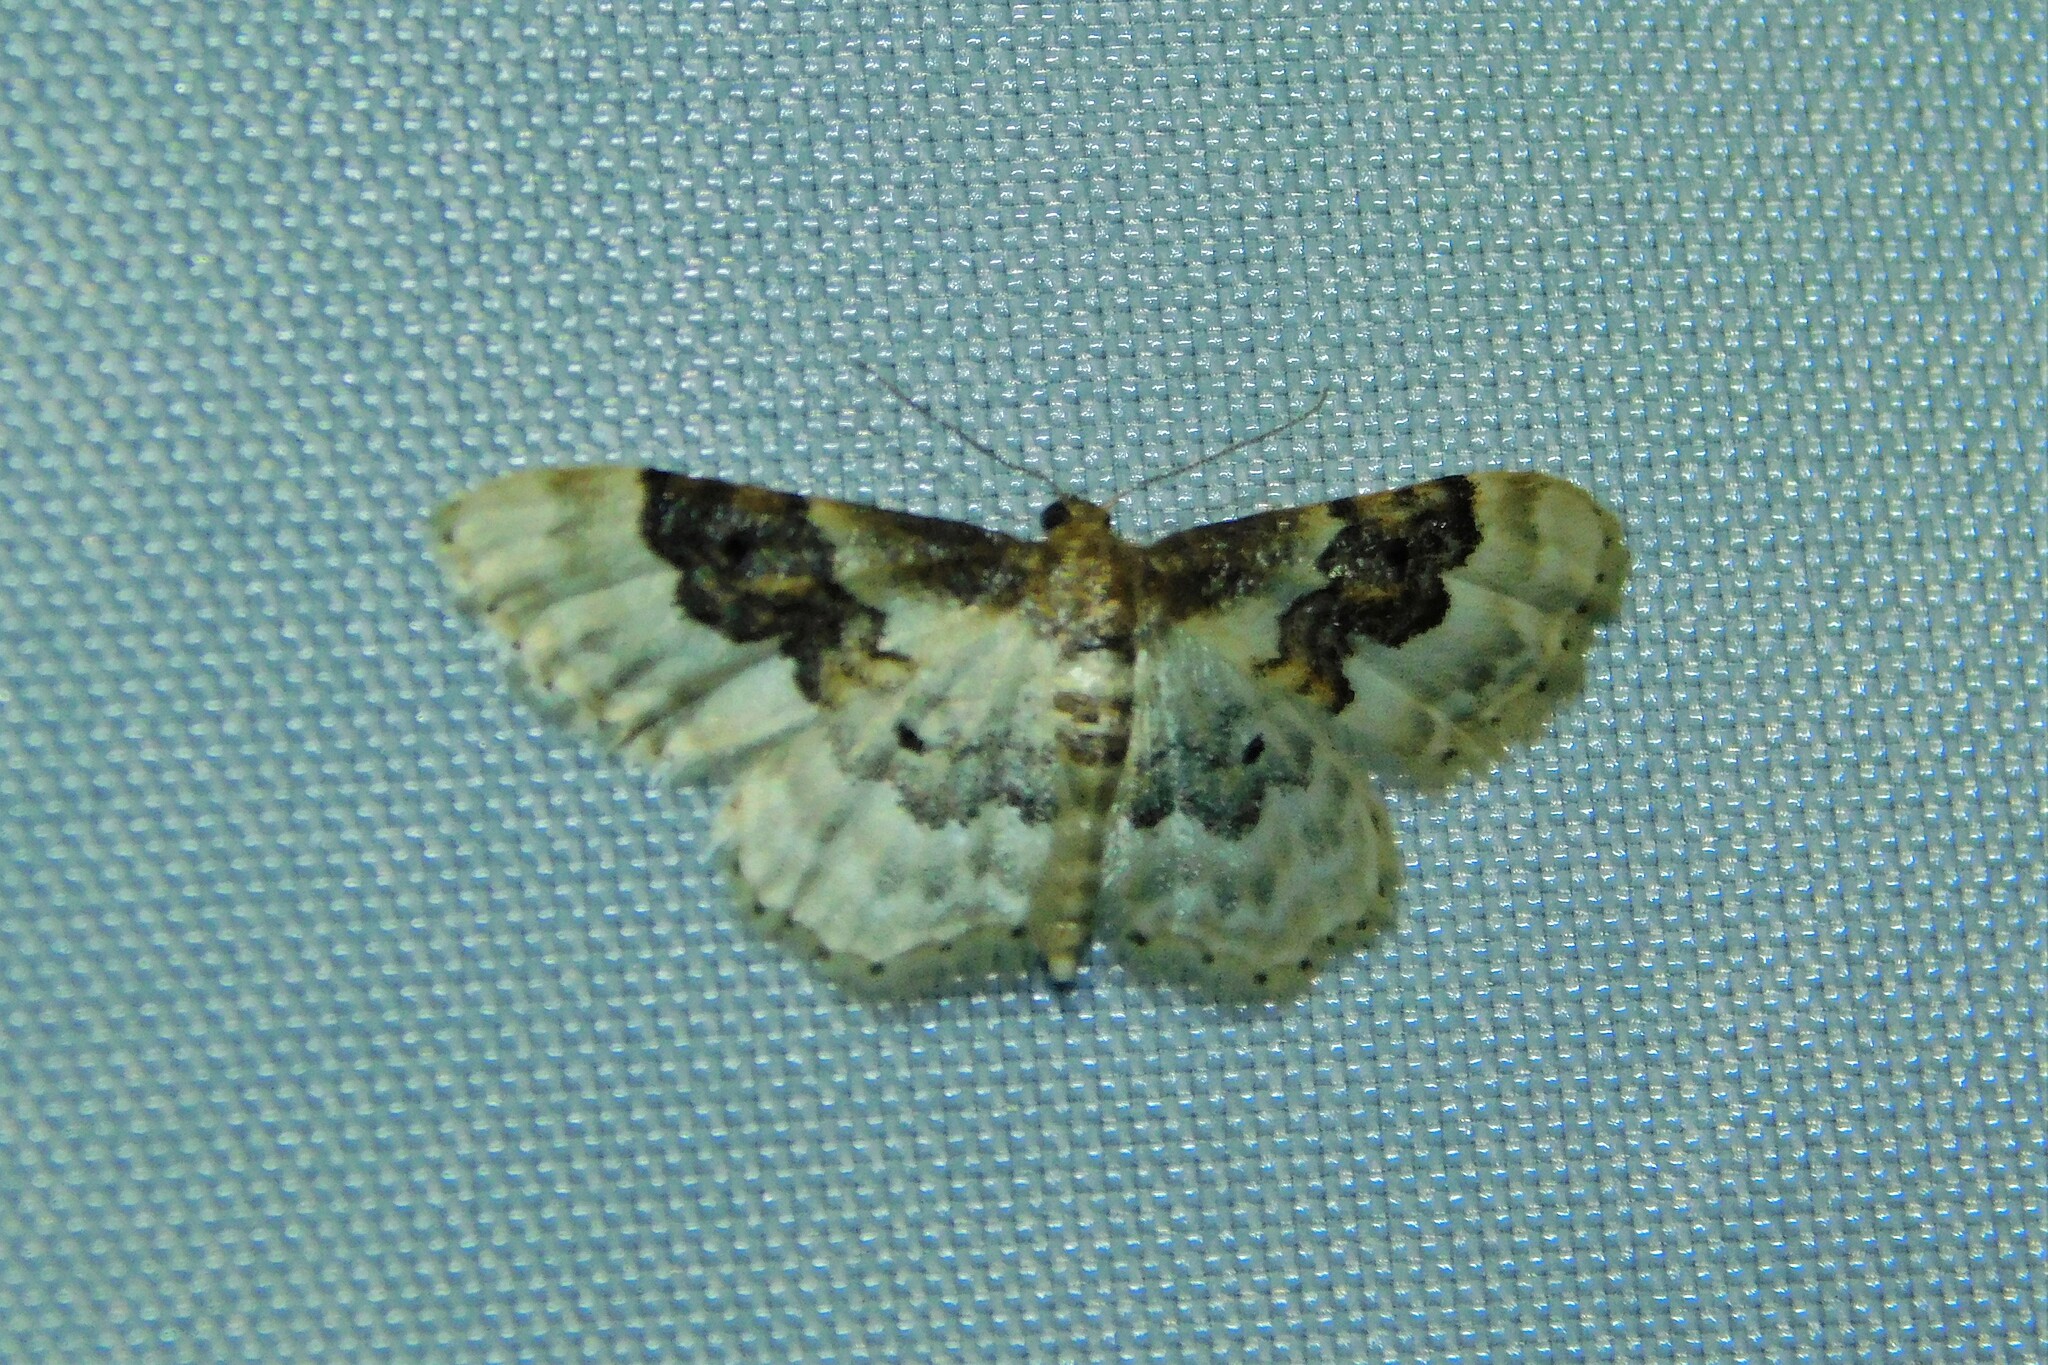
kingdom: Animalia
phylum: Arthropoda
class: Insecta
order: Lepidoptera
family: Geometridae
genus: Idaea
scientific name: Idaea rusticata
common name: Least carpet
